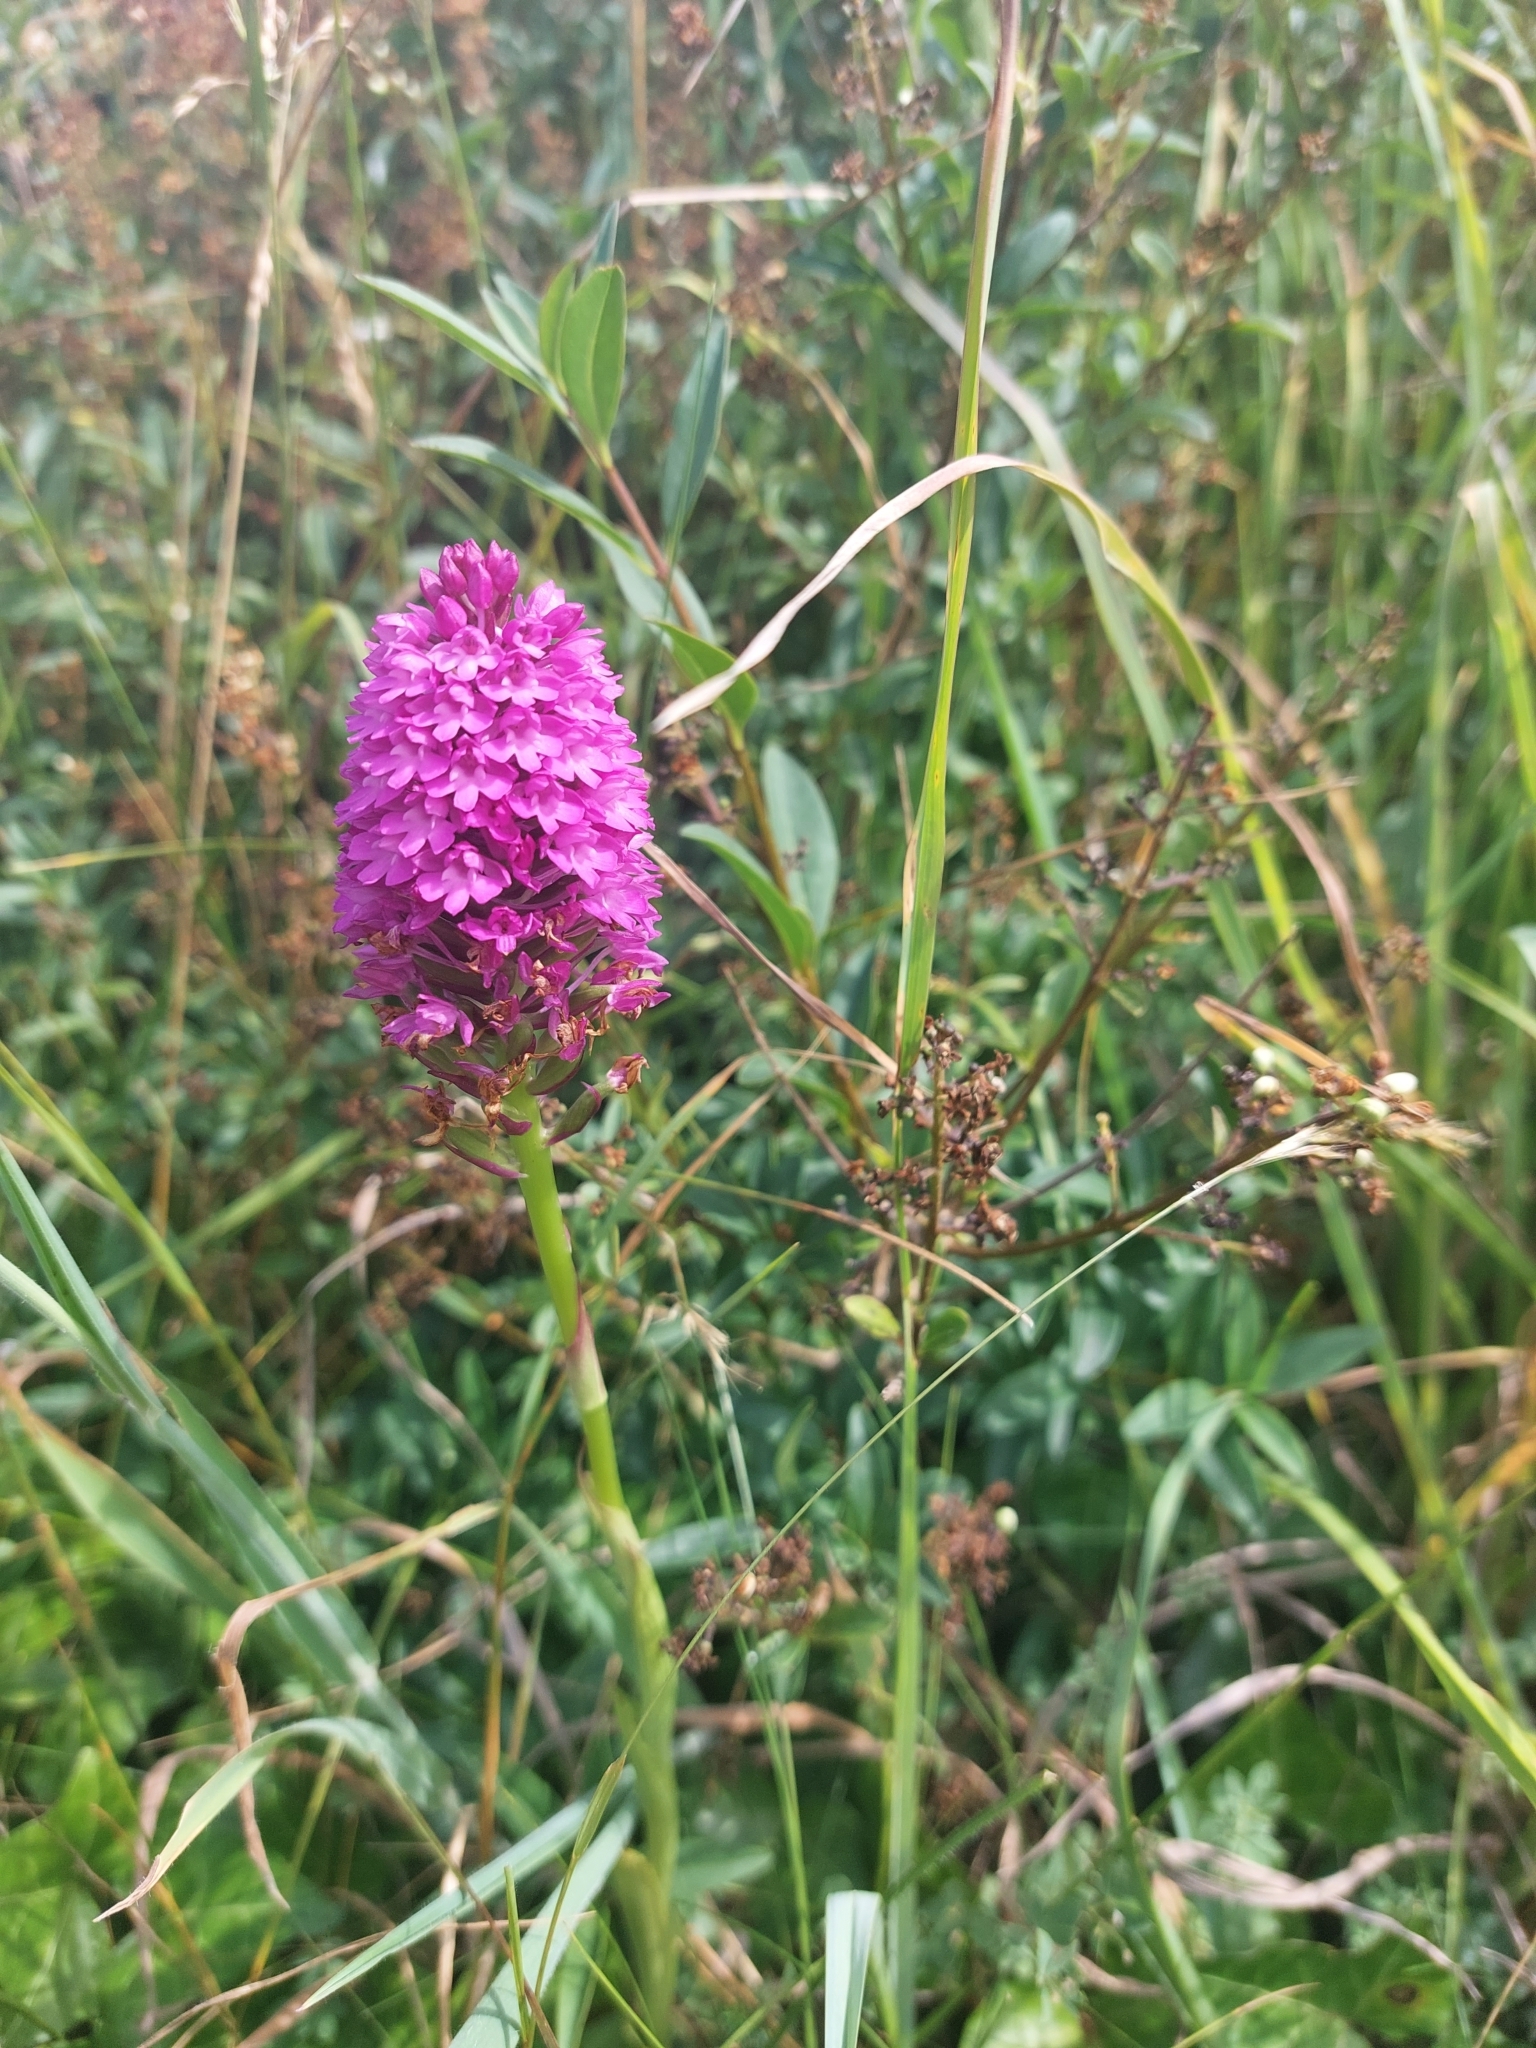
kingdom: Plantae
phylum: Tracheophyta
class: Liliopsida
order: Asparagales
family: Orchidaceae
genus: Anacamptis
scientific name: Anacamptis pyramidalis
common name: Pyramidal orchid
